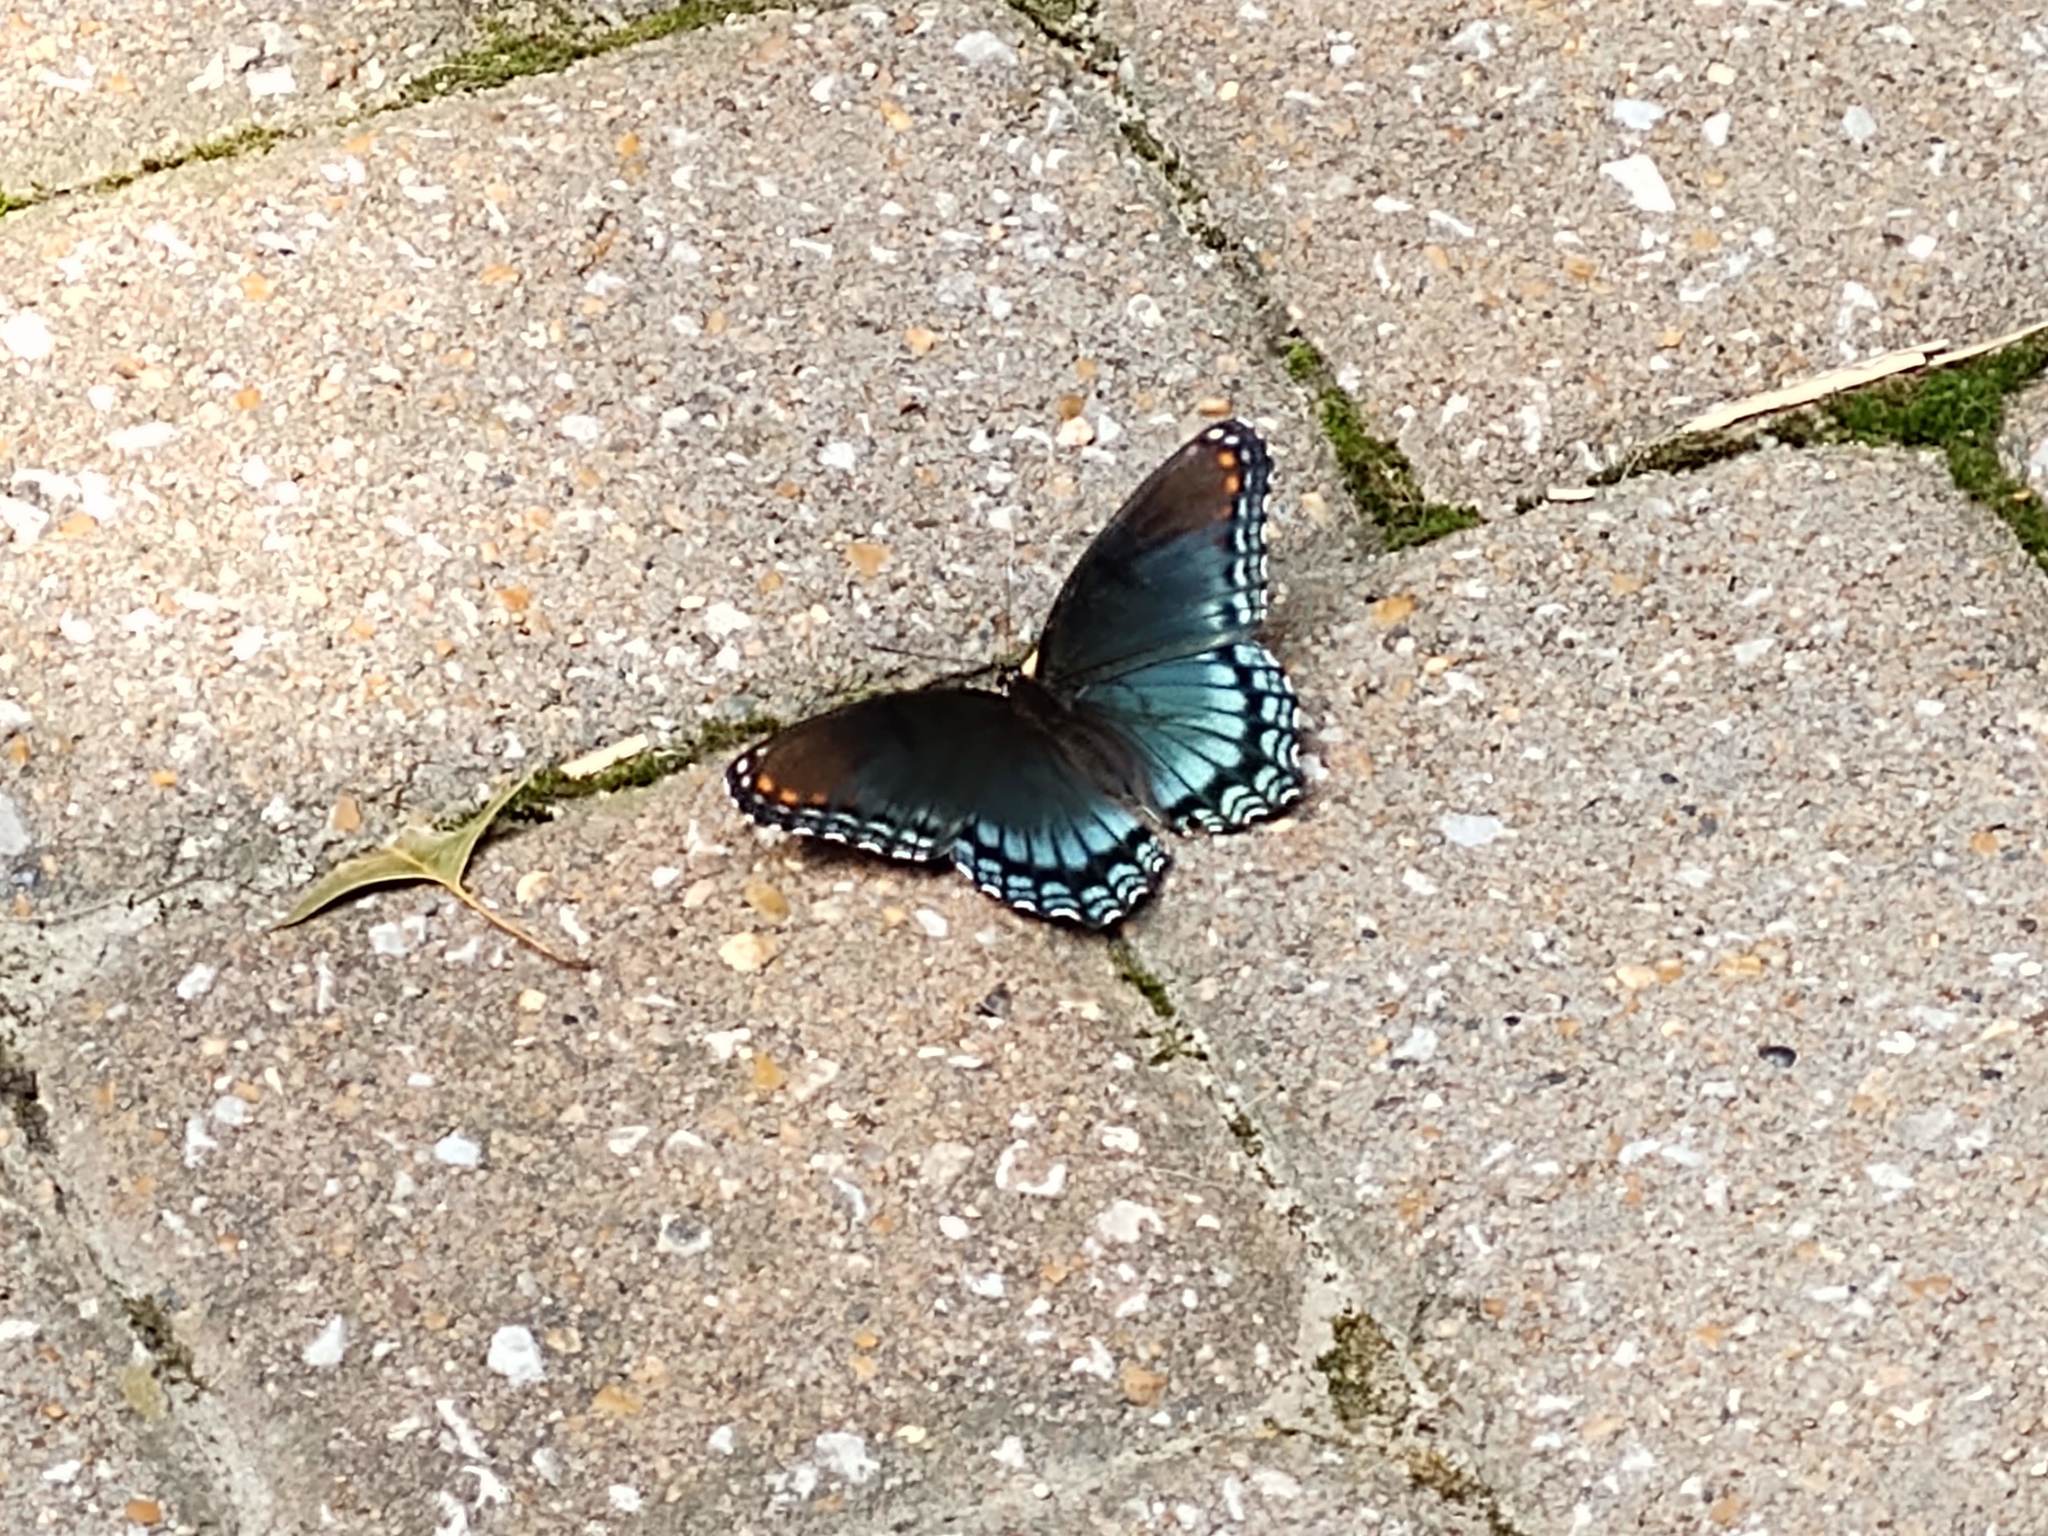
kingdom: Animalia
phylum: Arthropoda
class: Insecta
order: Lepidoptera
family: Nymphalidae
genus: Limenitis
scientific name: Limenitis arthemis
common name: Red-spotted admiral
